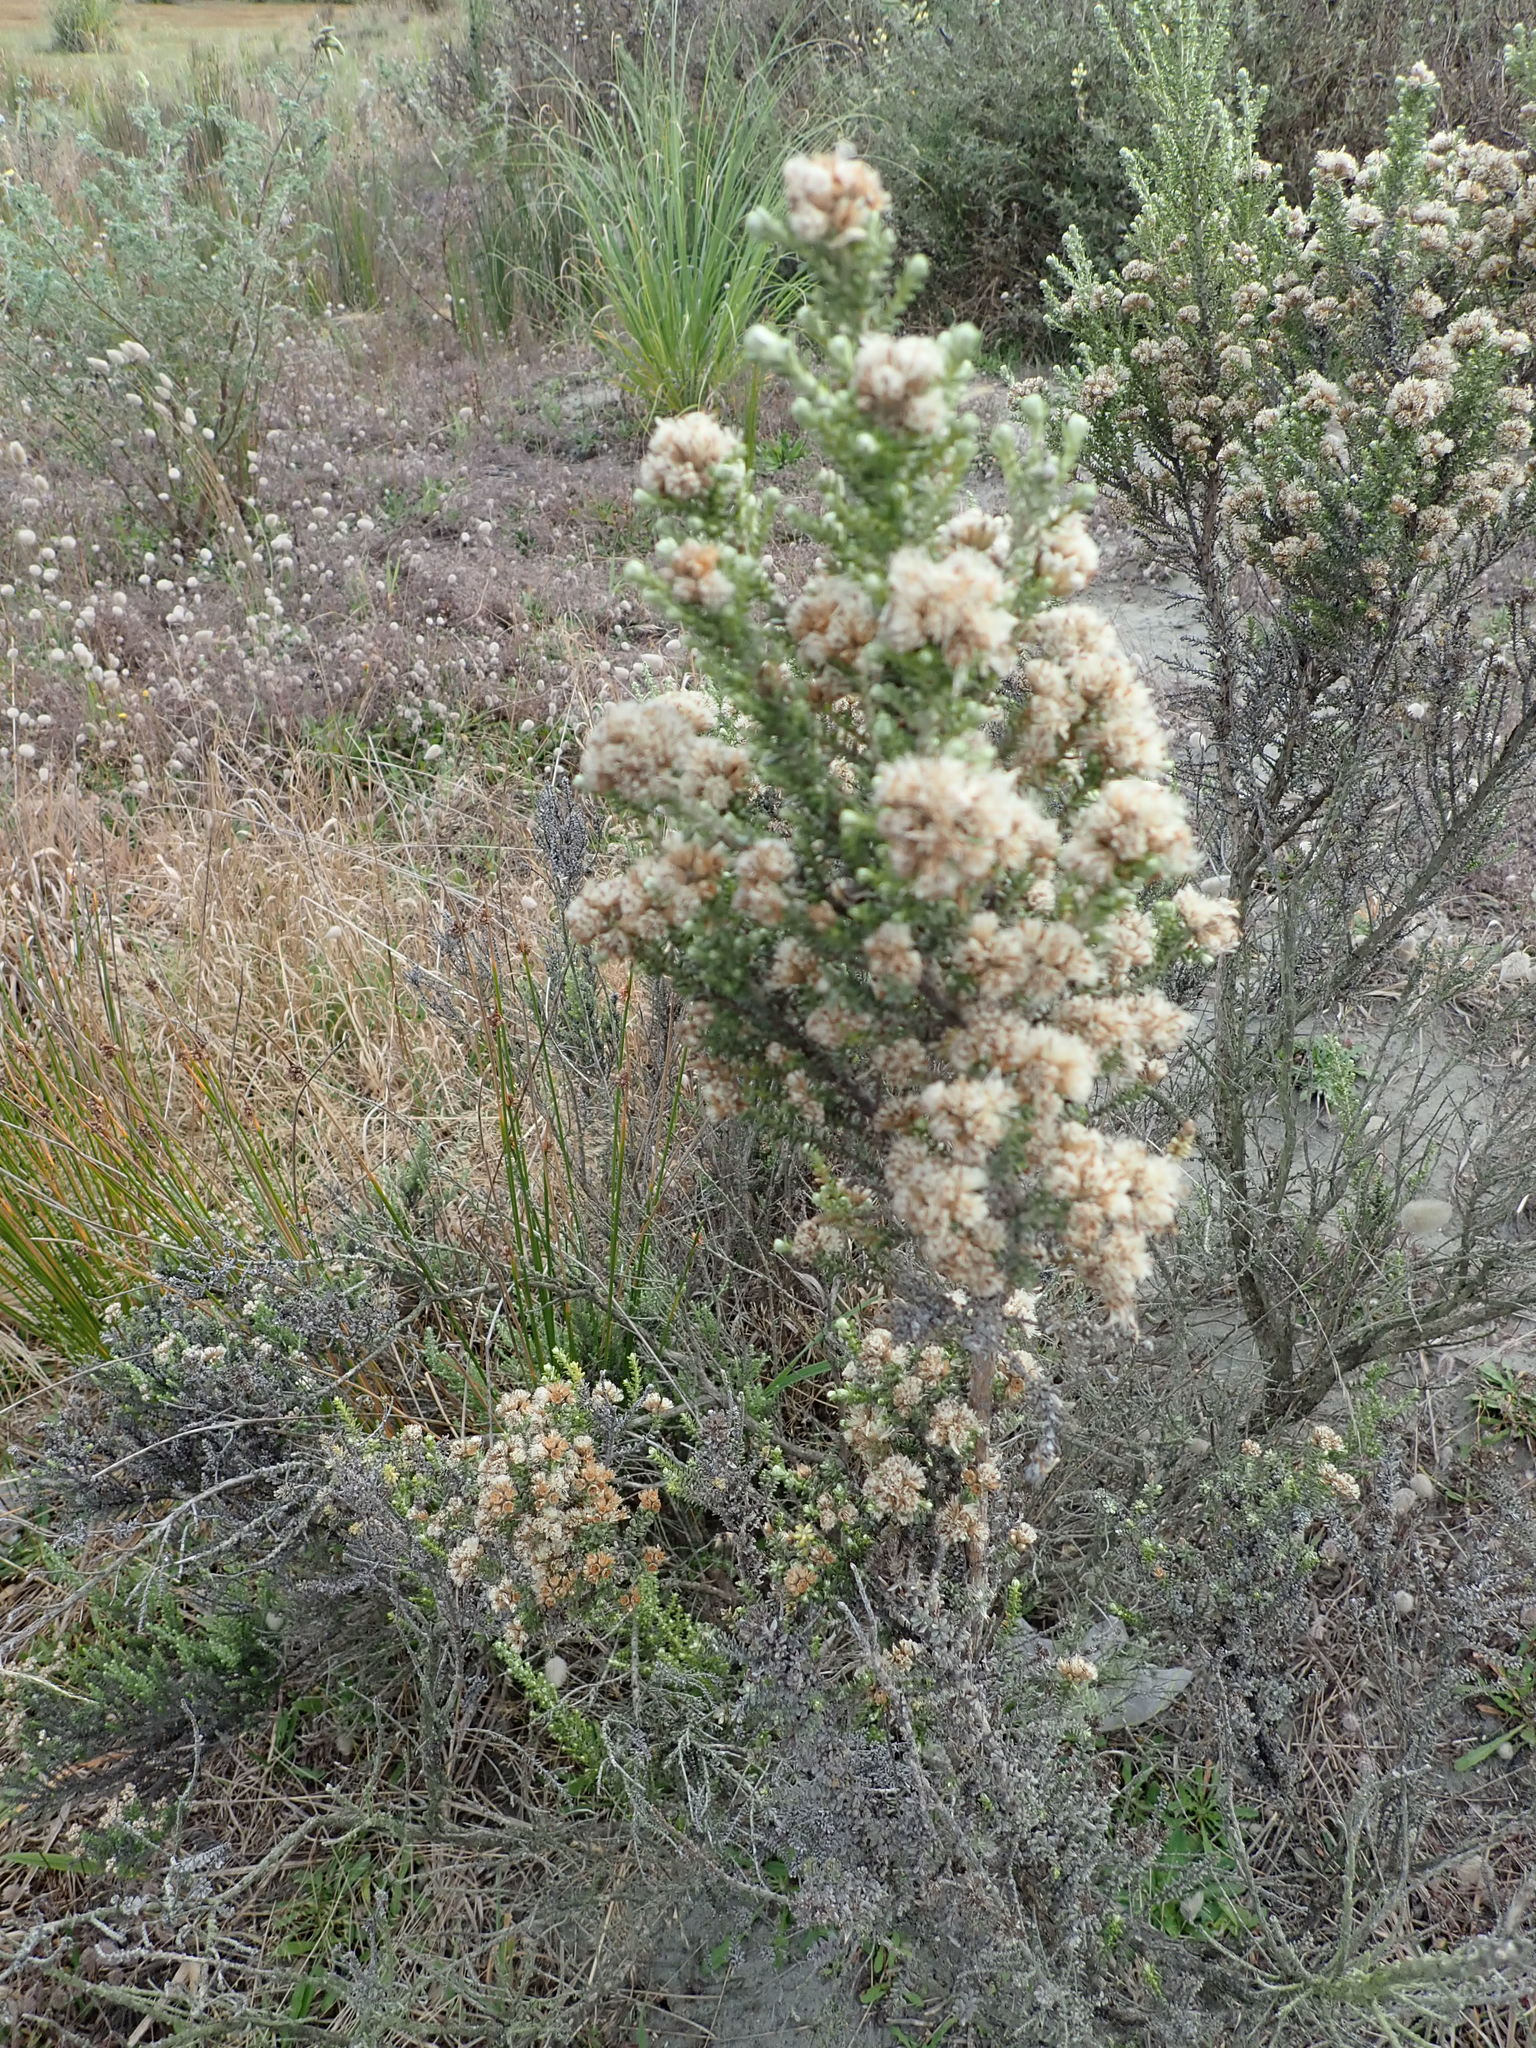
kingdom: Plantae
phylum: Tracheophyta
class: Magnoliopsida
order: Asterales
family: Asteraceae
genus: Ozothamnus
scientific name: Ozothamnus leptophyllus
